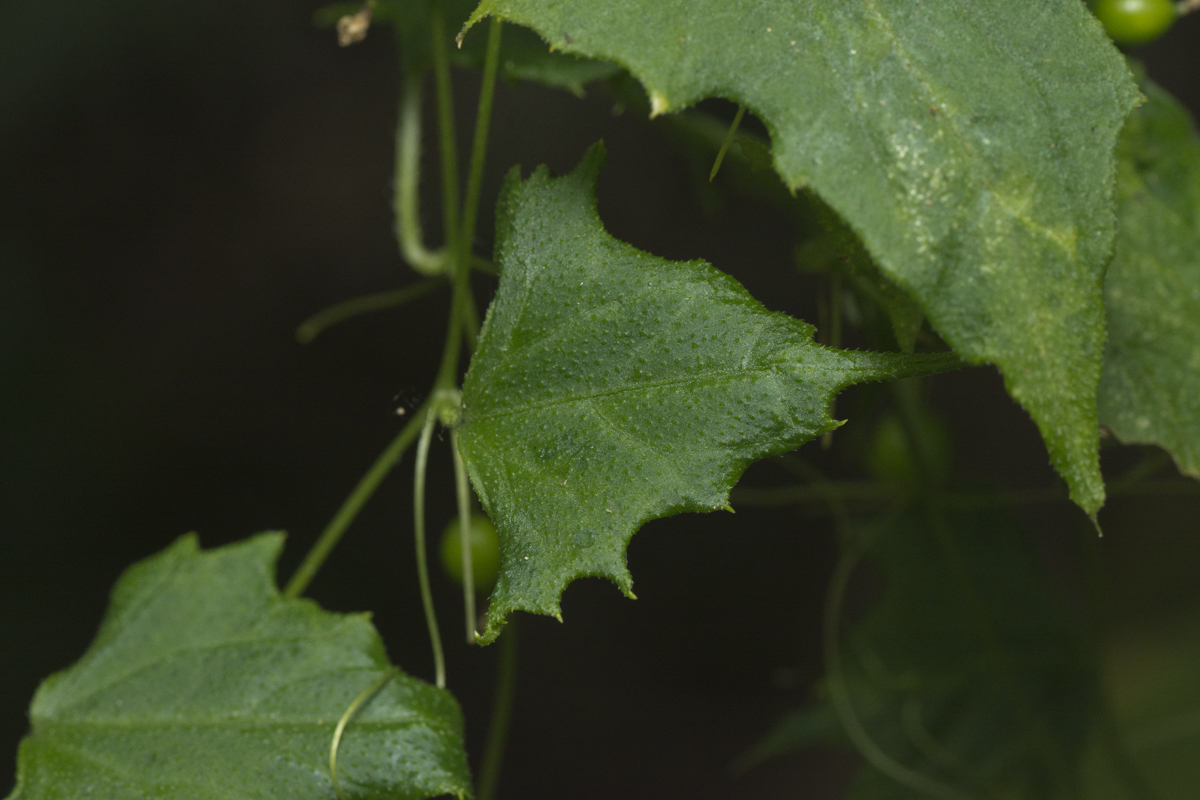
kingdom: Plantae
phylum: Tracheophyta
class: Magnoliopsida
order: Cucurbitales
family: Cucurbitaceae
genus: Zehneria
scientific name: Zehneria cunninghamii
